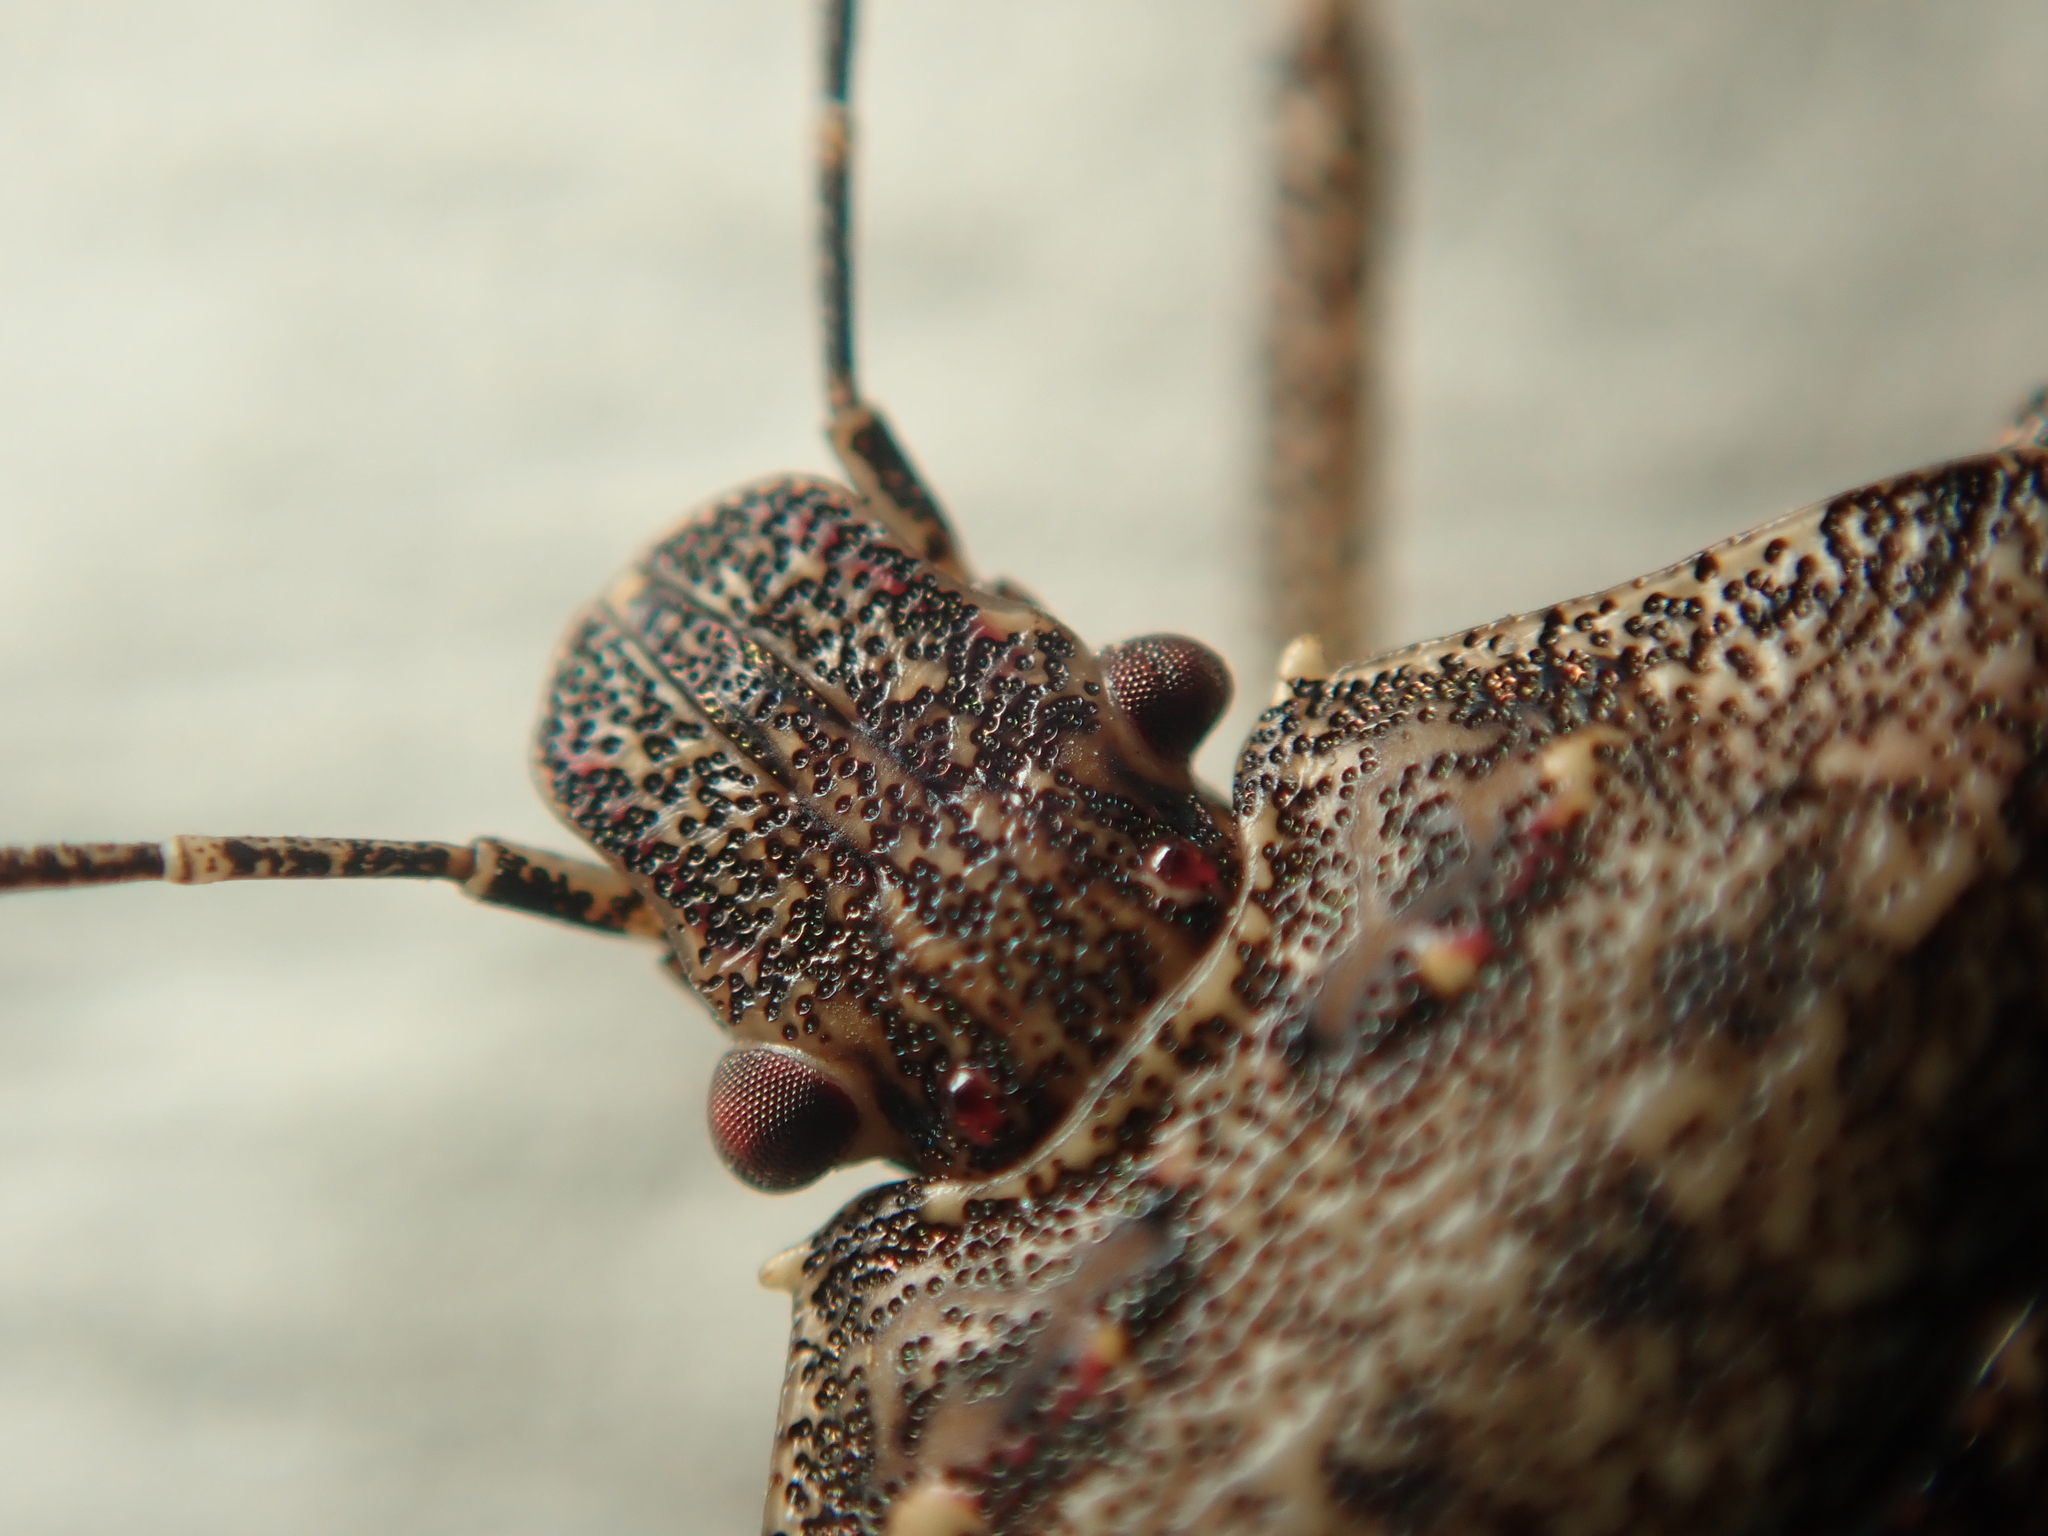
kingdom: Animalia
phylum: Arthropoda
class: Insecta
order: Hemiptera
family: Pentatomidae
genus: Halyomorpha
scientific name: Halyomorpha halys
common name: Brown marmorated stink bug
